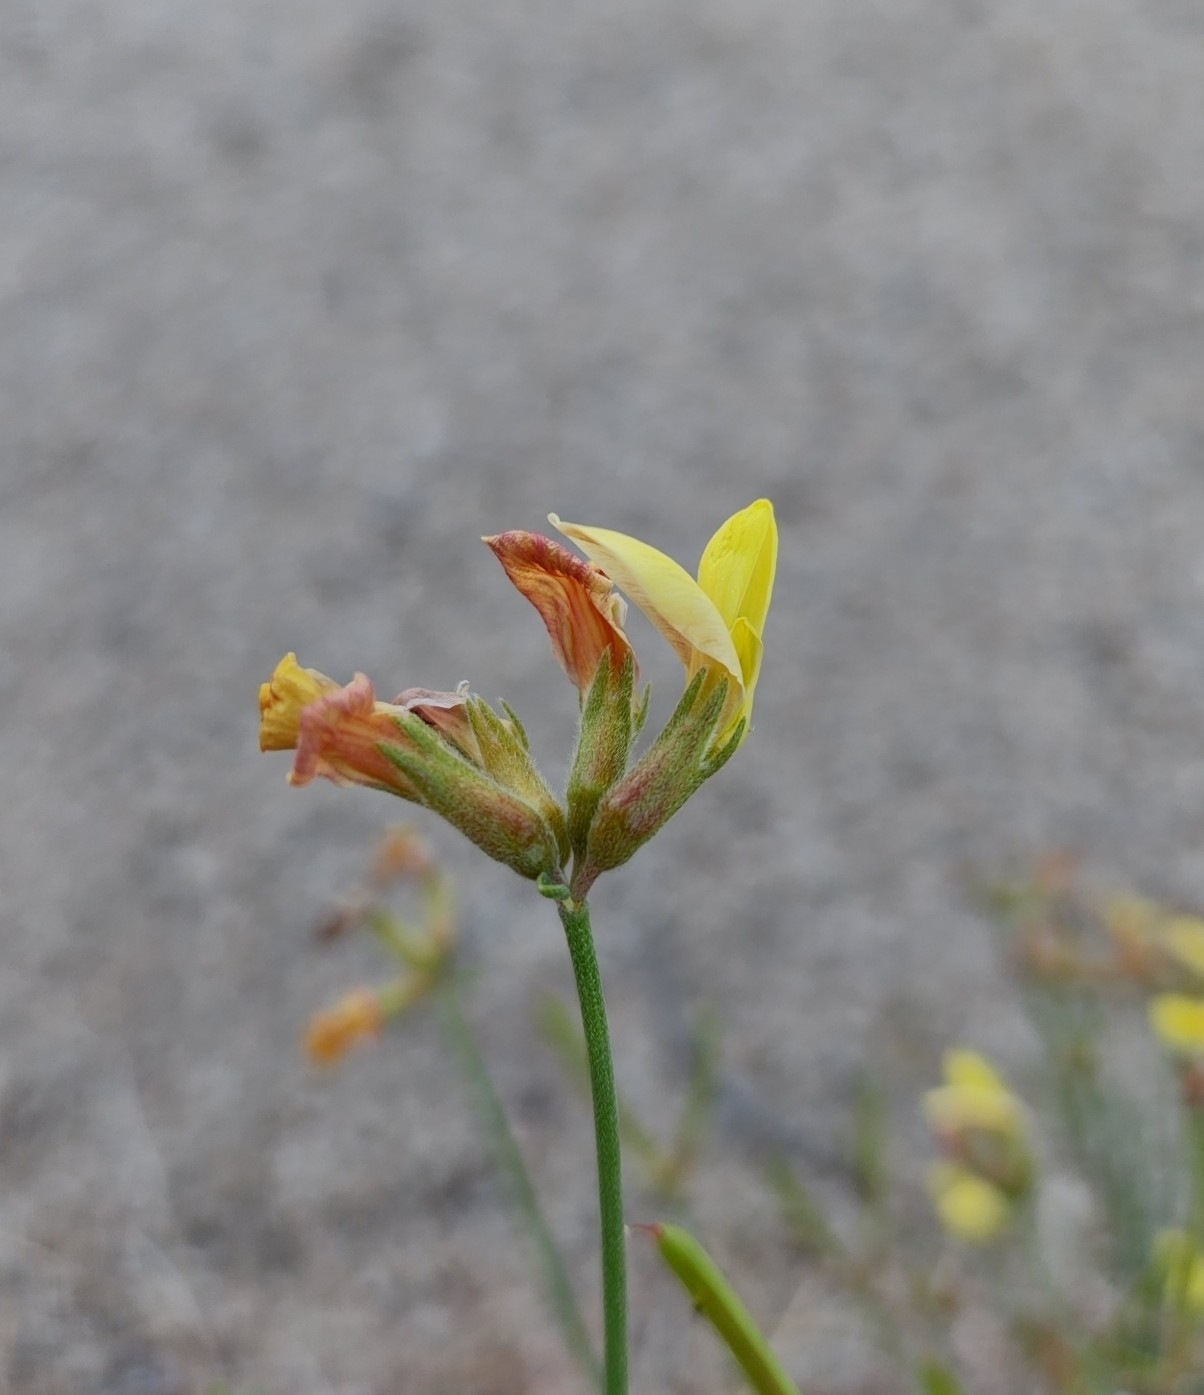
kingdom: Plantae
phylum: Tracheophyta
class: Magnoliopsida
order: Fabales
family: Fabaceae
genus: Acmispon
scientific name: Acmispon rigidus
